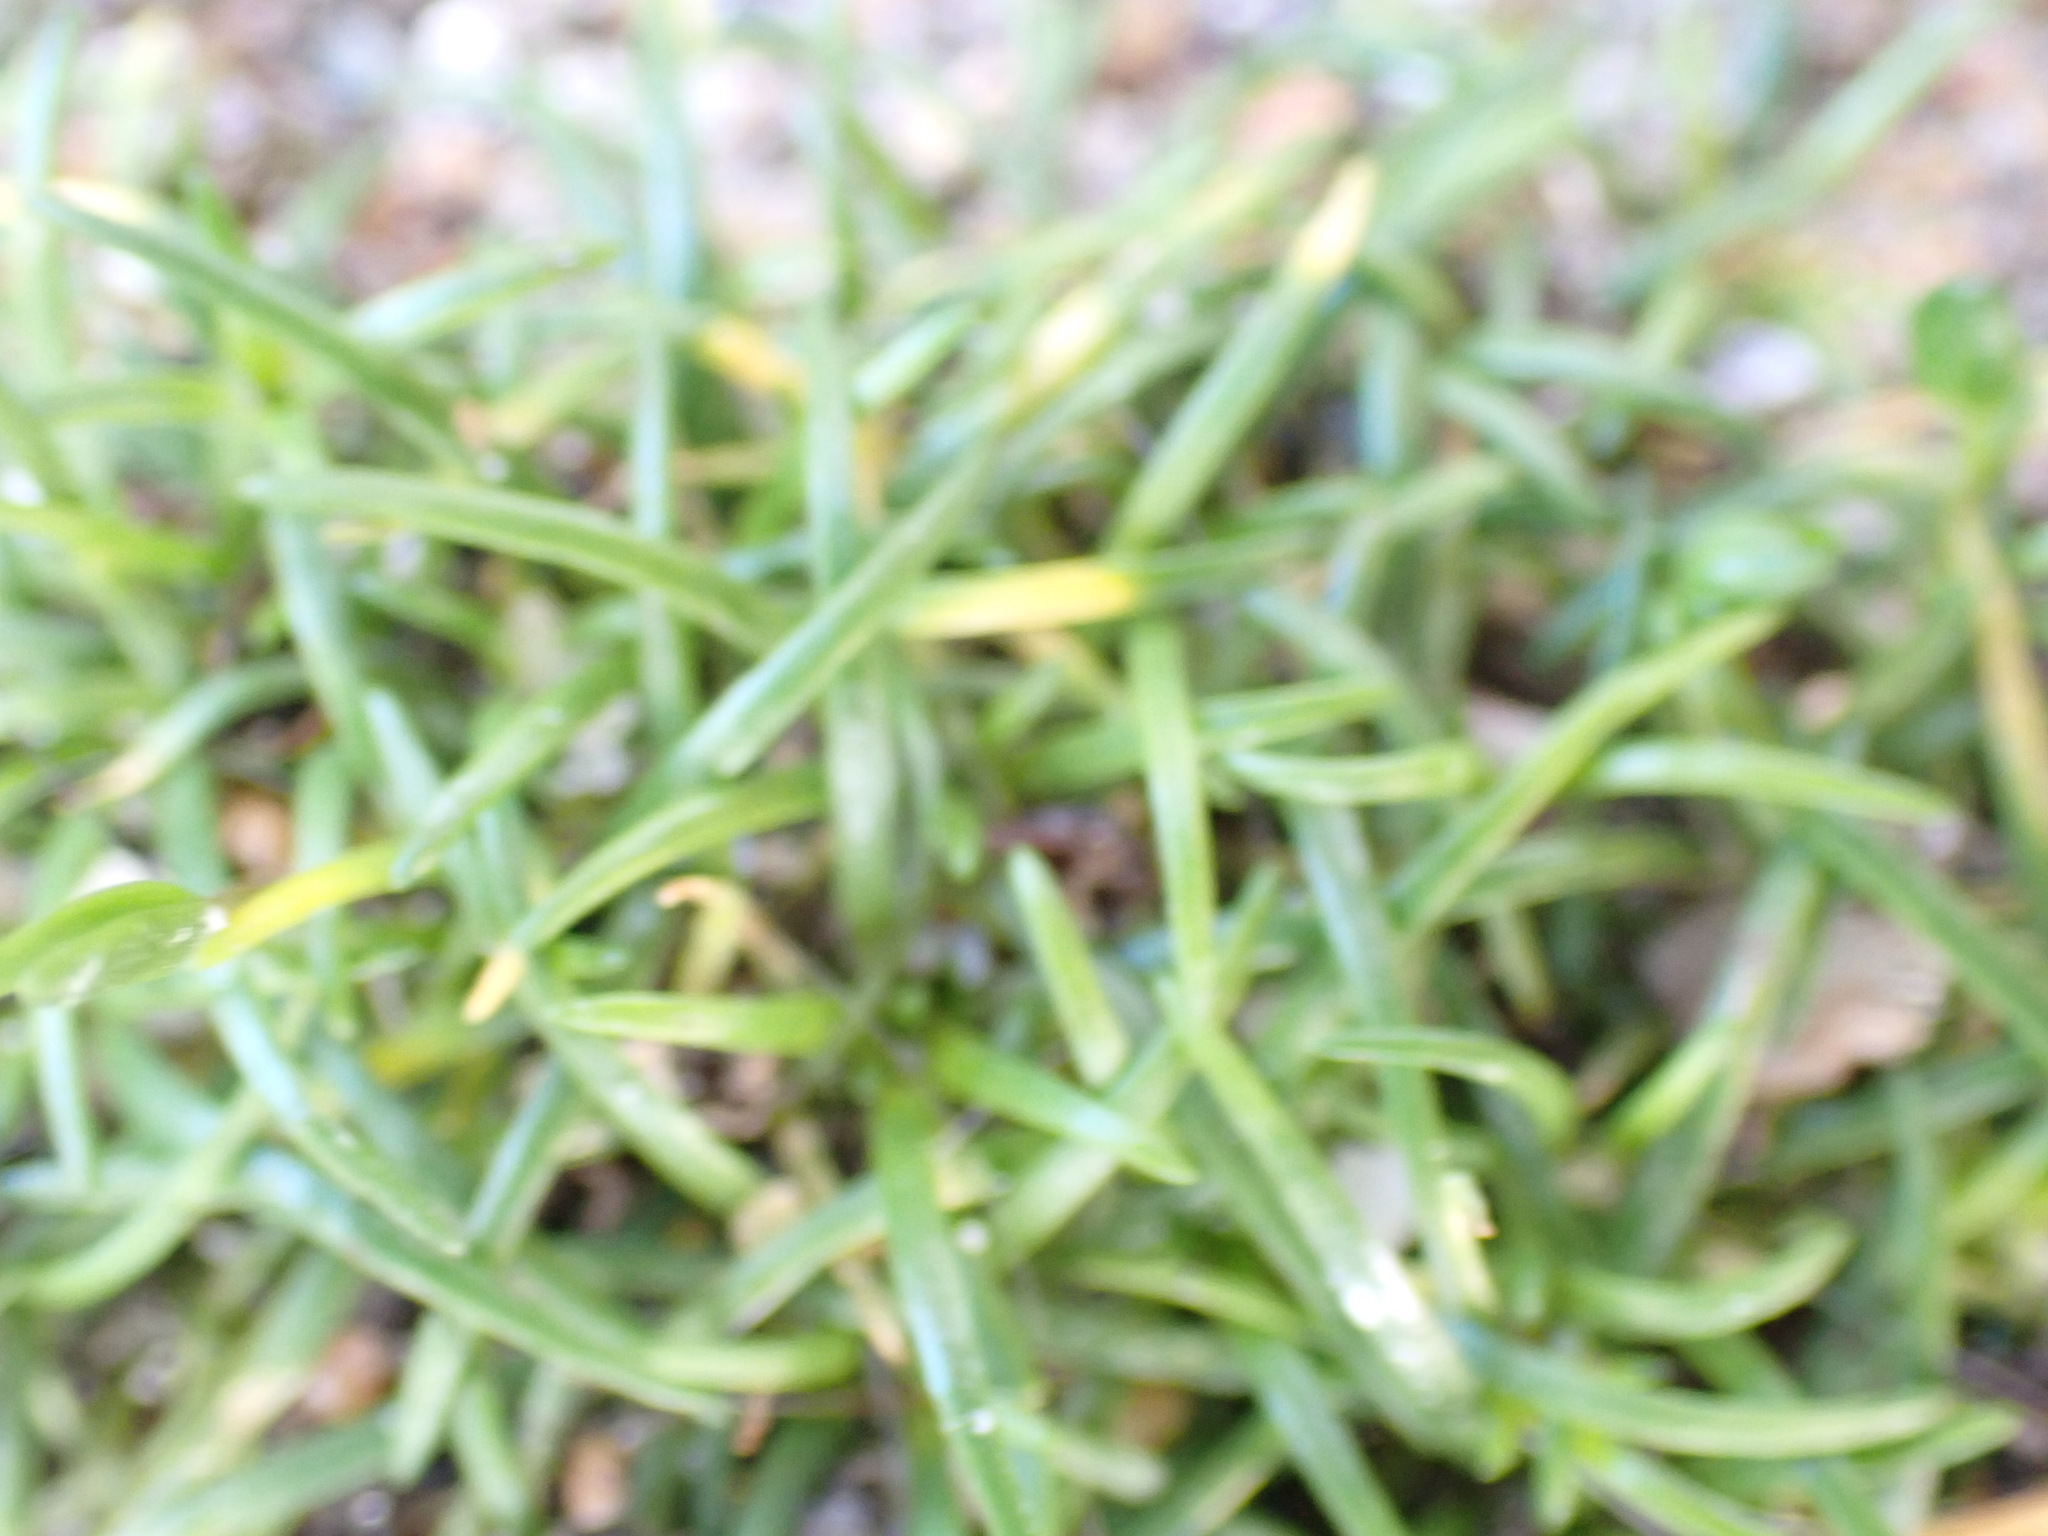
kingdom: Plantae
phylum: Tracheophyta
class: Magnoliopsida
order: Caryophyllales
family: Caryophyllaceae
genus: Sagina
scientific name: Sagina procumbens
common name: Procumbent pearlwort
